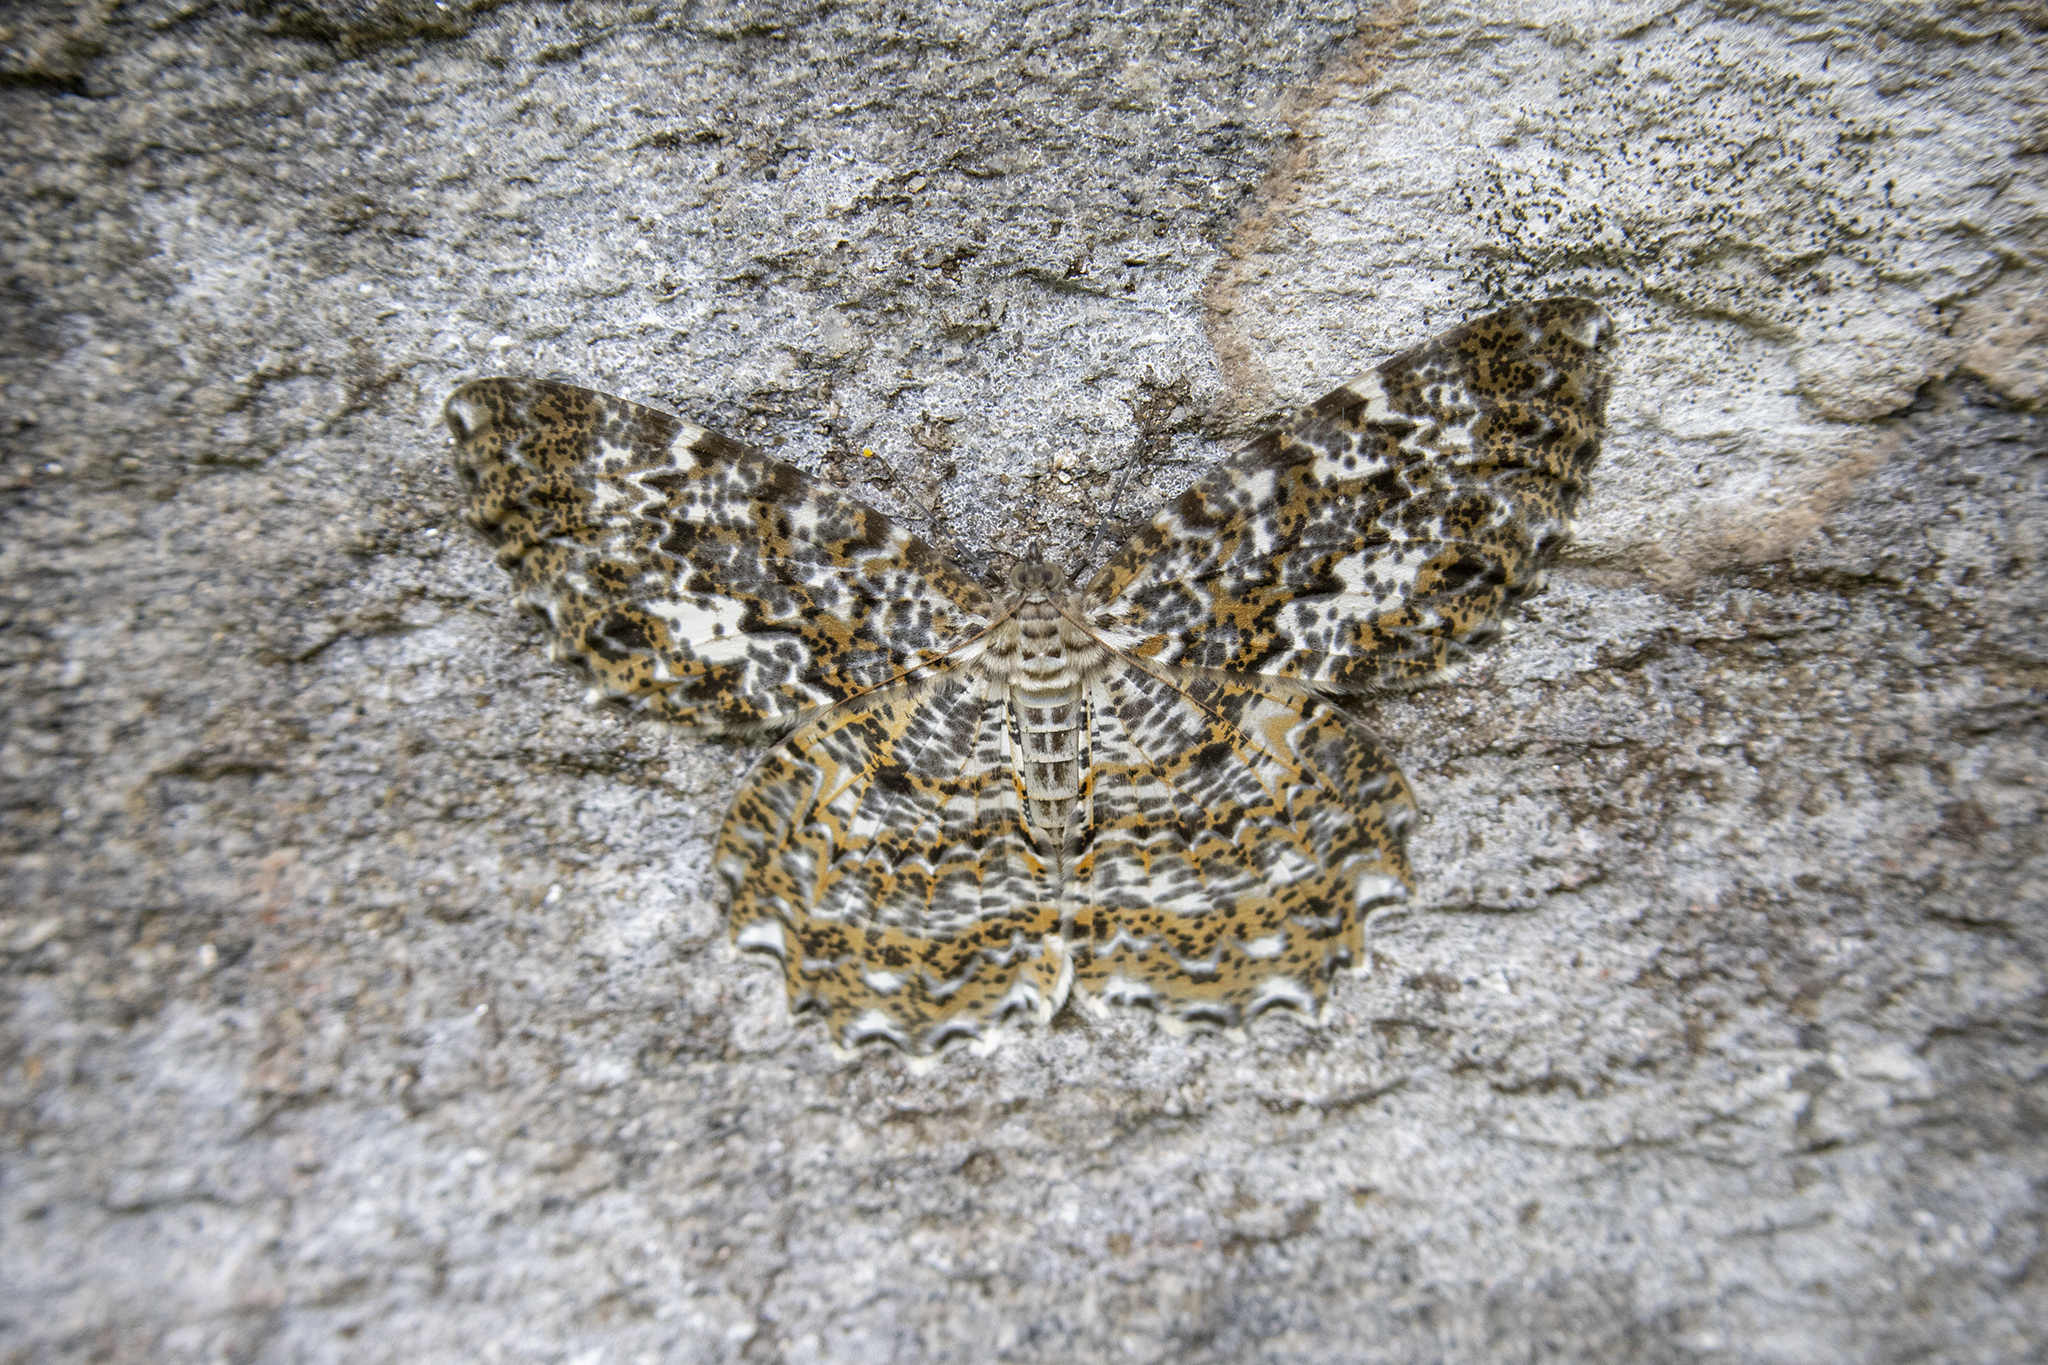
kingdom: Animalia
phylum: Arthropoda
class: Insecta
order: Lepidoptera
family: Geometridae
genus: Amblychia
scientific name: Amblychia pardicelata
